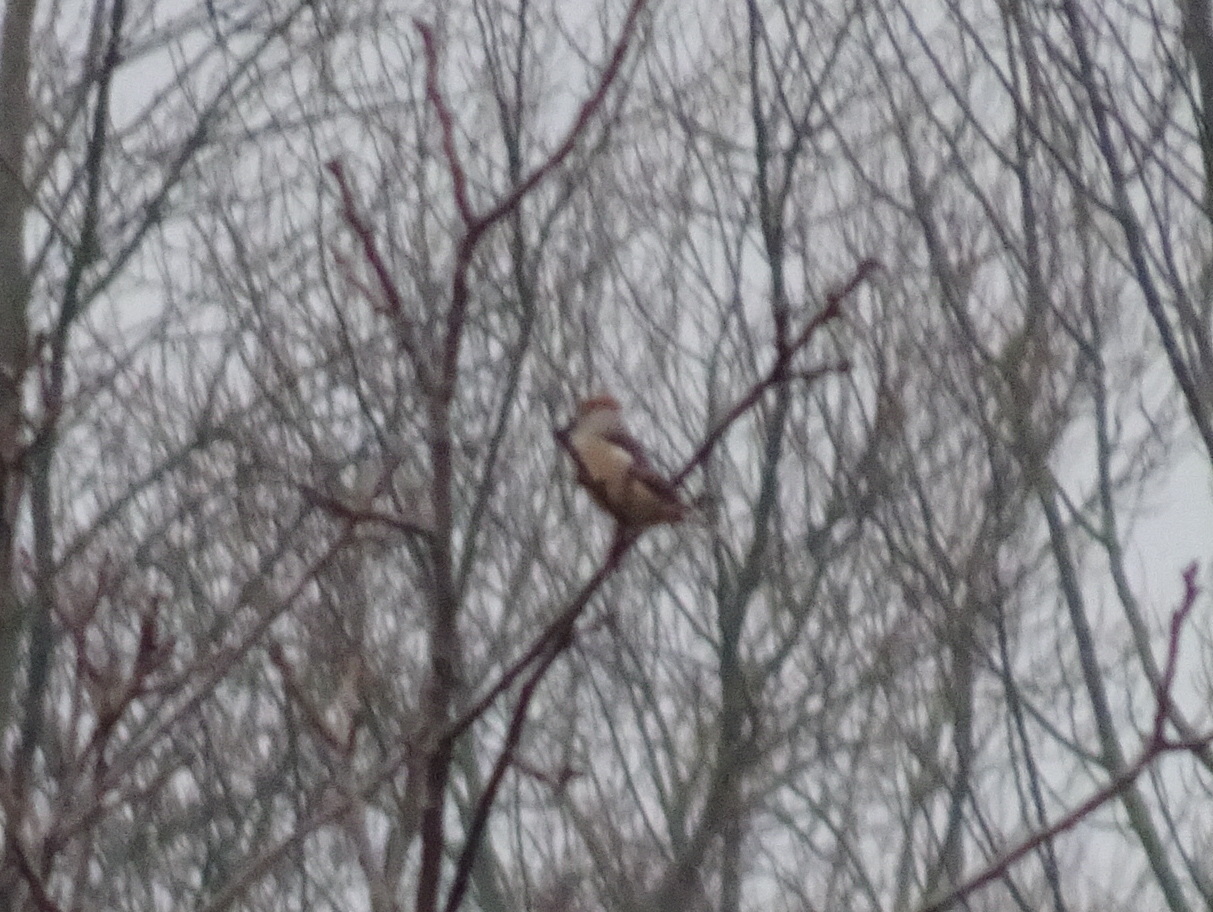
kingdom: Animalia
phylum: Chordata
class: Aves
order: Passeriformes
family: Fringillidae
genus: Coccothraustes
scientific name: Coccothraustes coccothraustes
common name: Hawfinch
